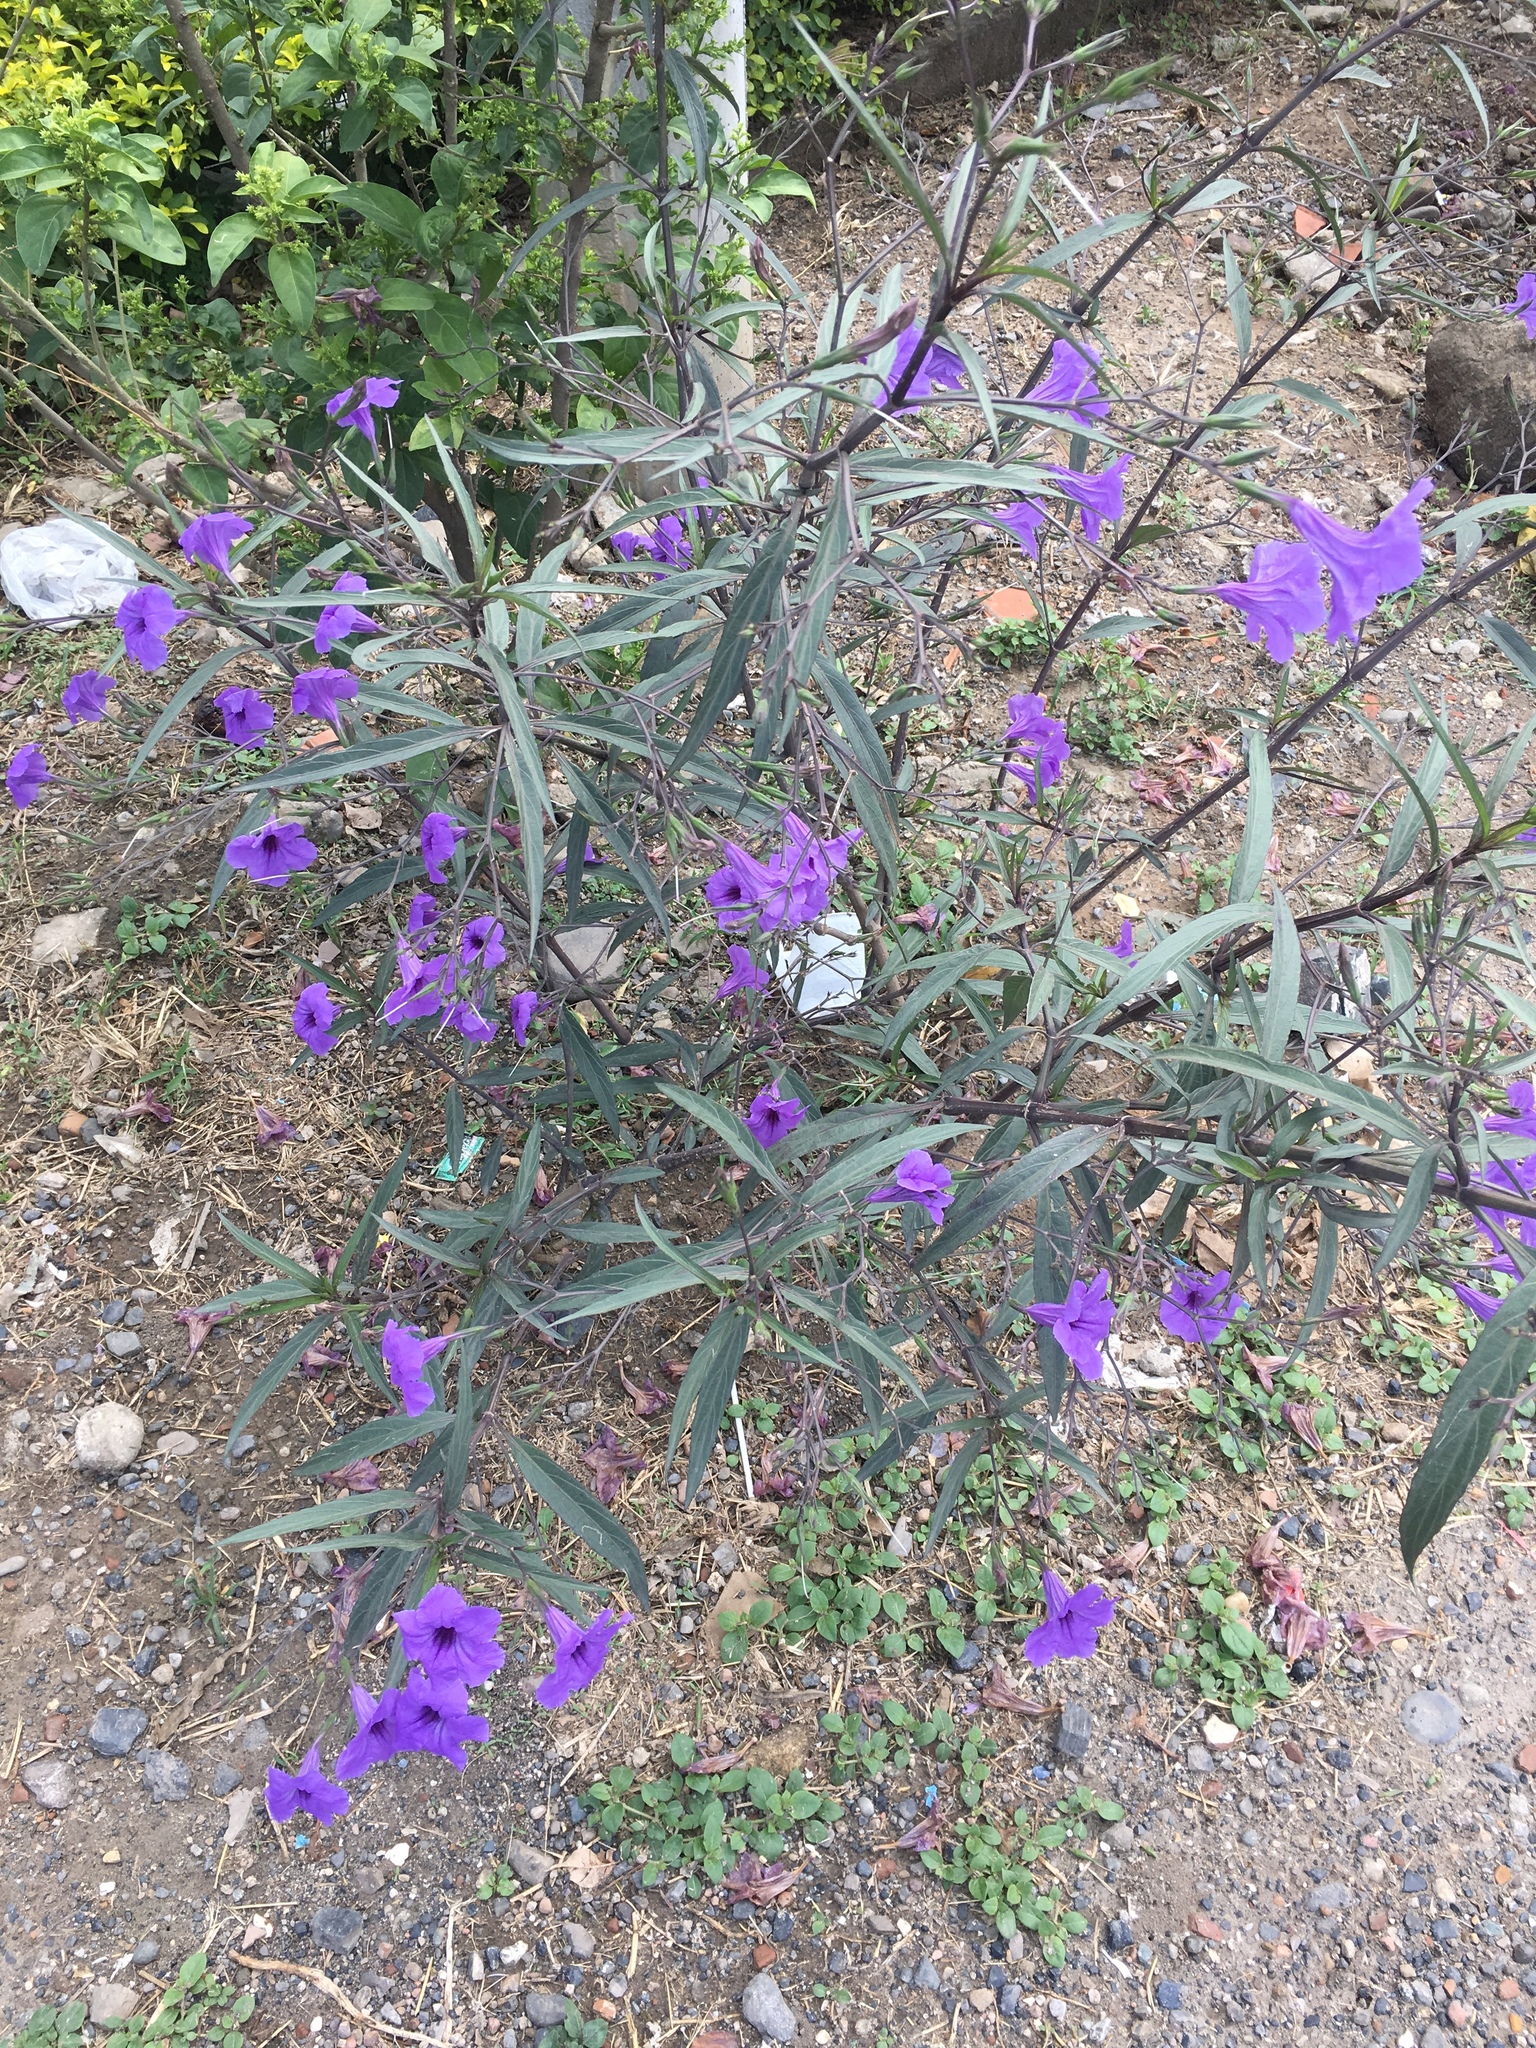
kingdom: Plantae
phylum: Tracheophyta
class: Magnoliopsida
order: Lamiales
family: Acanthaceae
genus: Ruellia
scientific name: Ruellia simplex
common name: Softseed wild petunia
